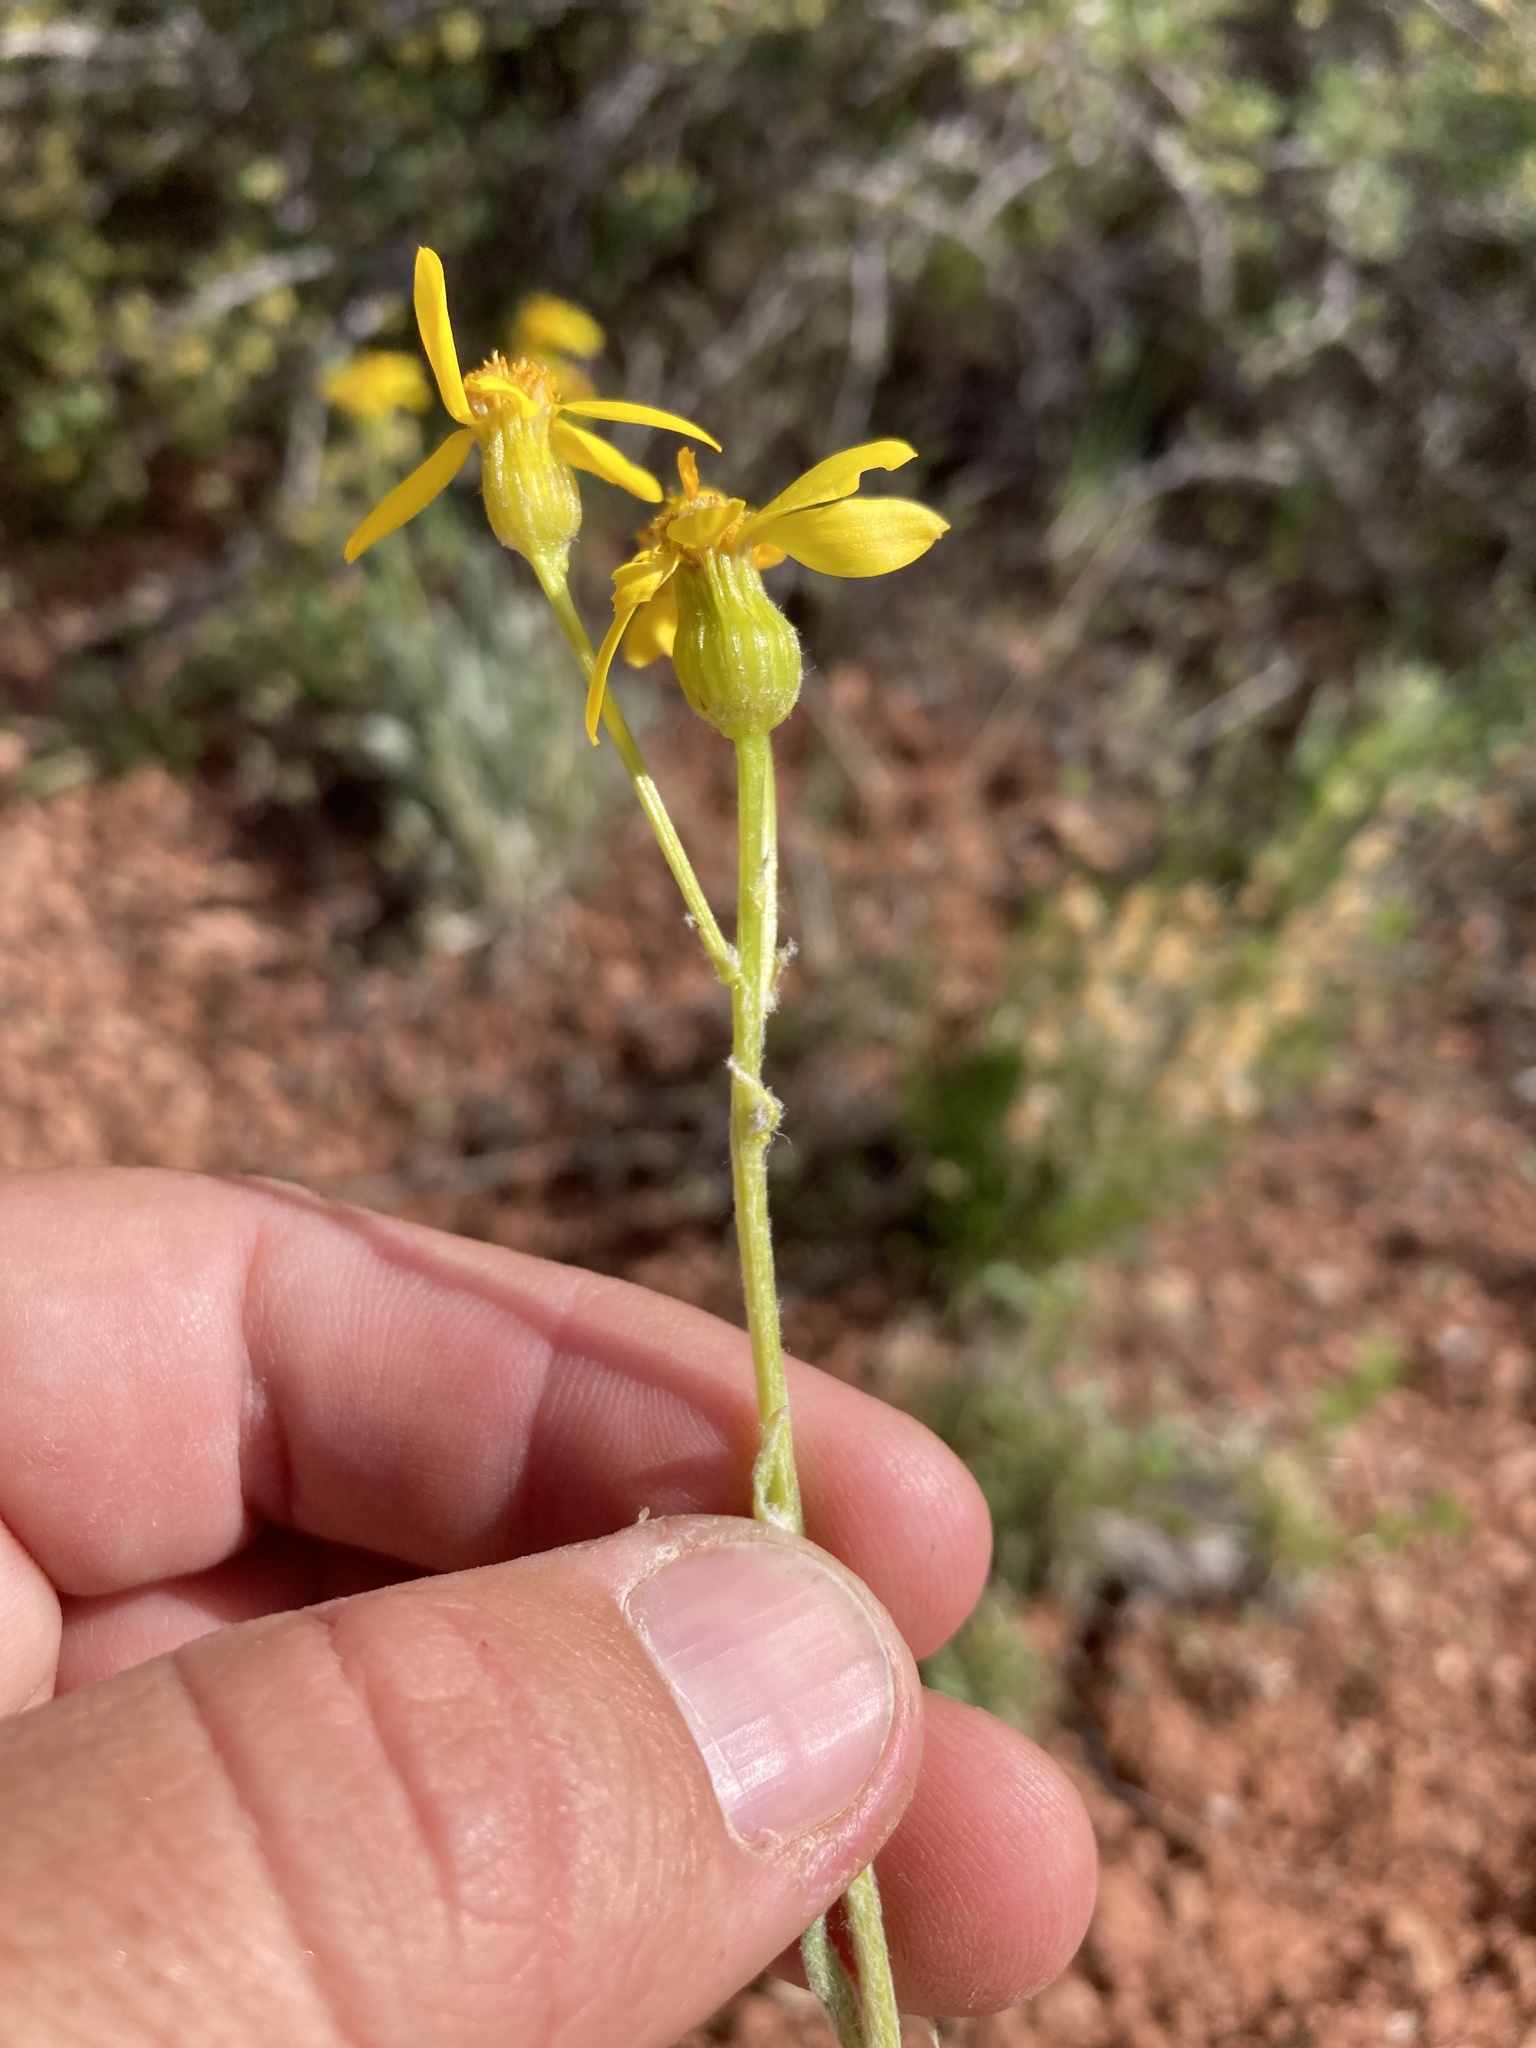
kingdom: Plantae
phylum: Tracheophyta
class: Magnoliopsida
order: Asterales
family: Asteraceae
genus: Packera
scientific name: Packera cana
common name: Woolly groundsel
